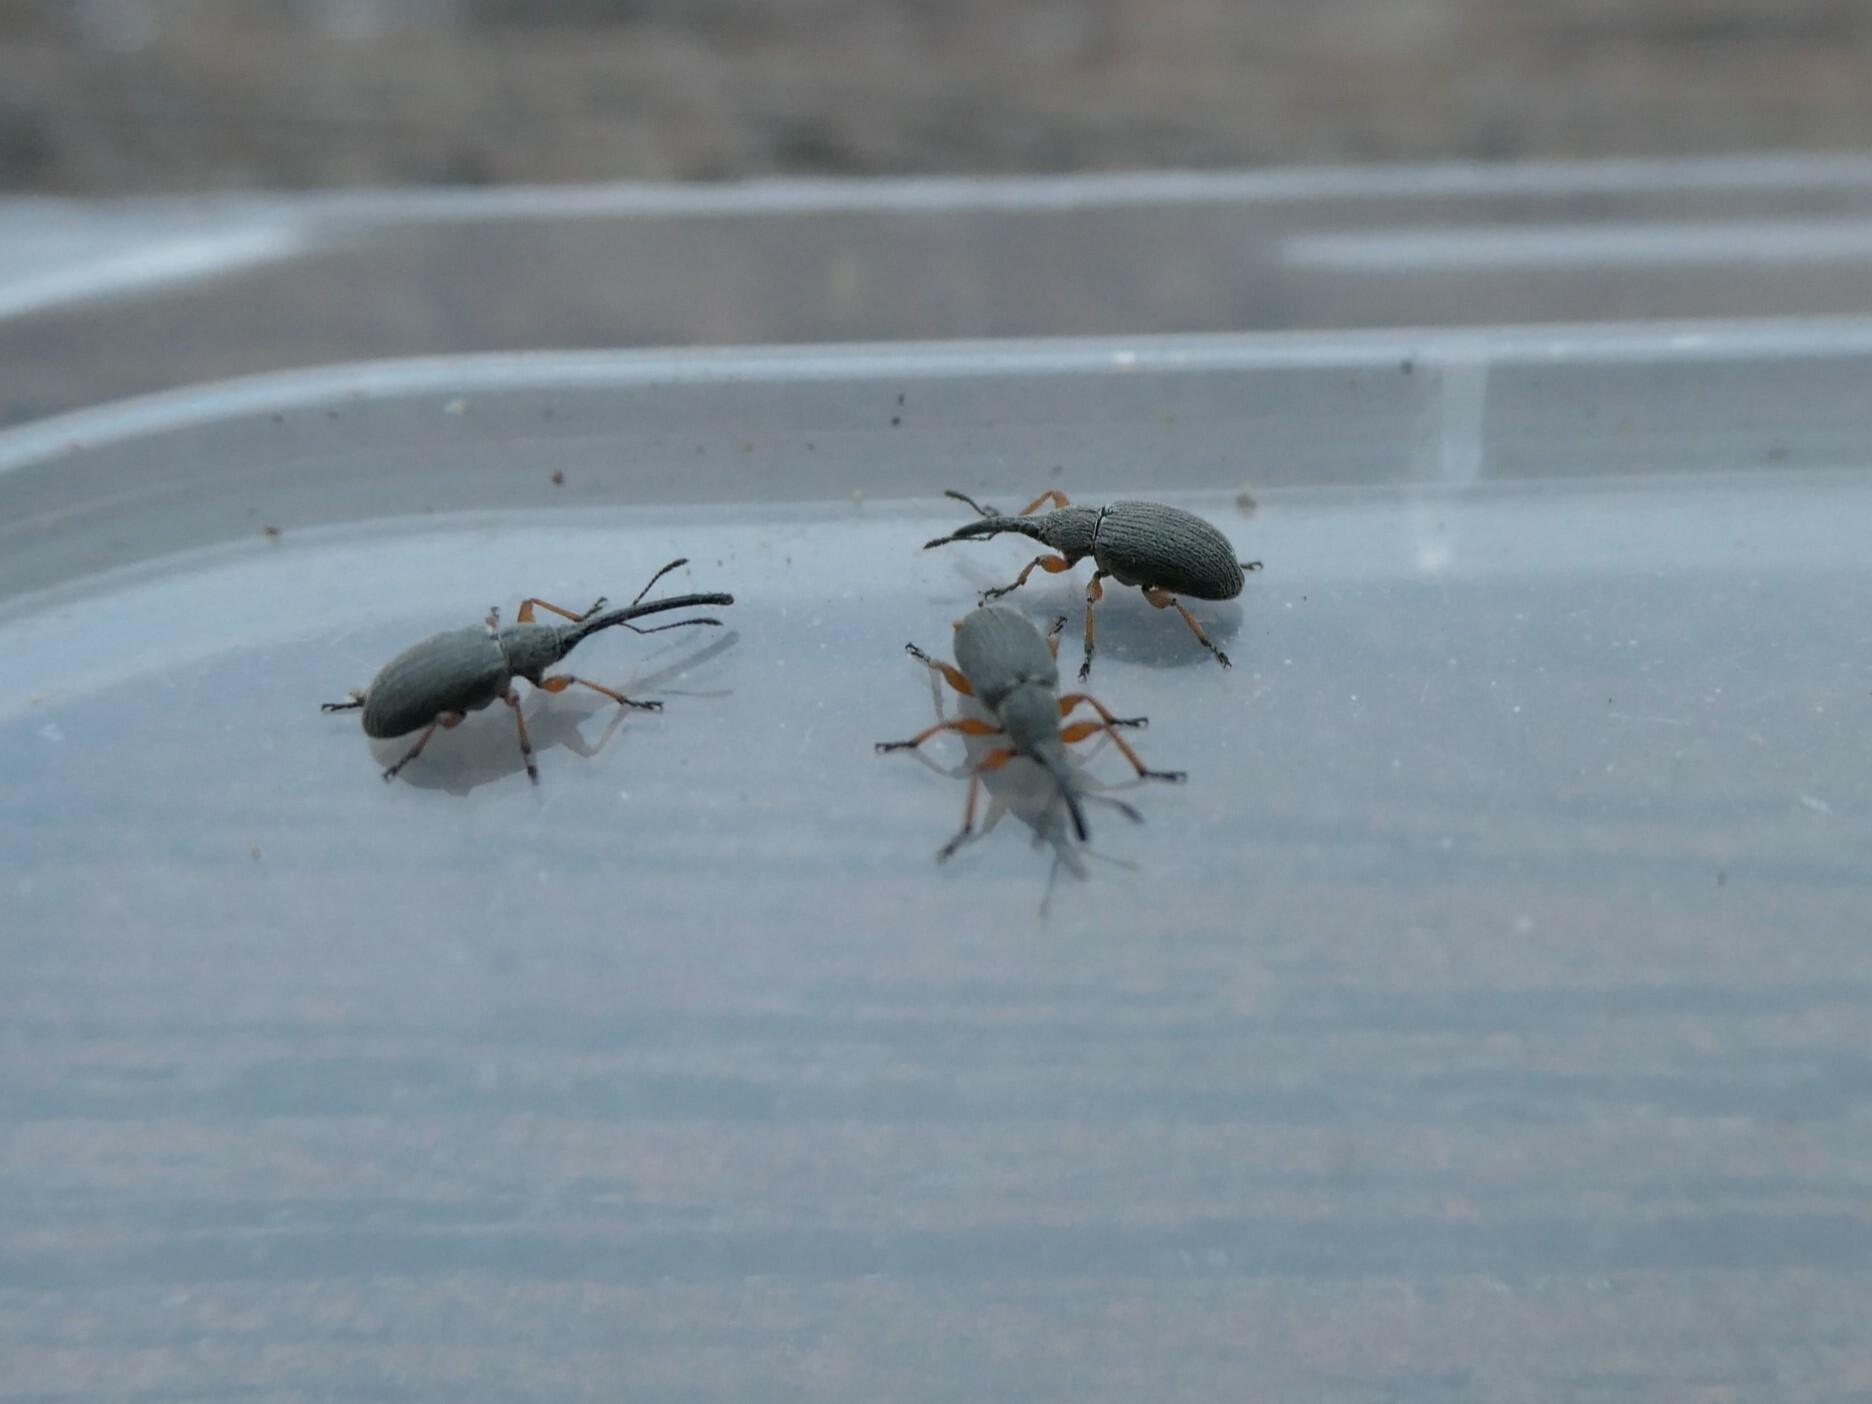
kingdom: Animalia
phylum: Arthropoda
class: Insecta
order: Coleoptera
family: Brentidae
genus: Rhopalapion
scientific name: Rhopalapion longirostre
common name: Hollyhock weevil
